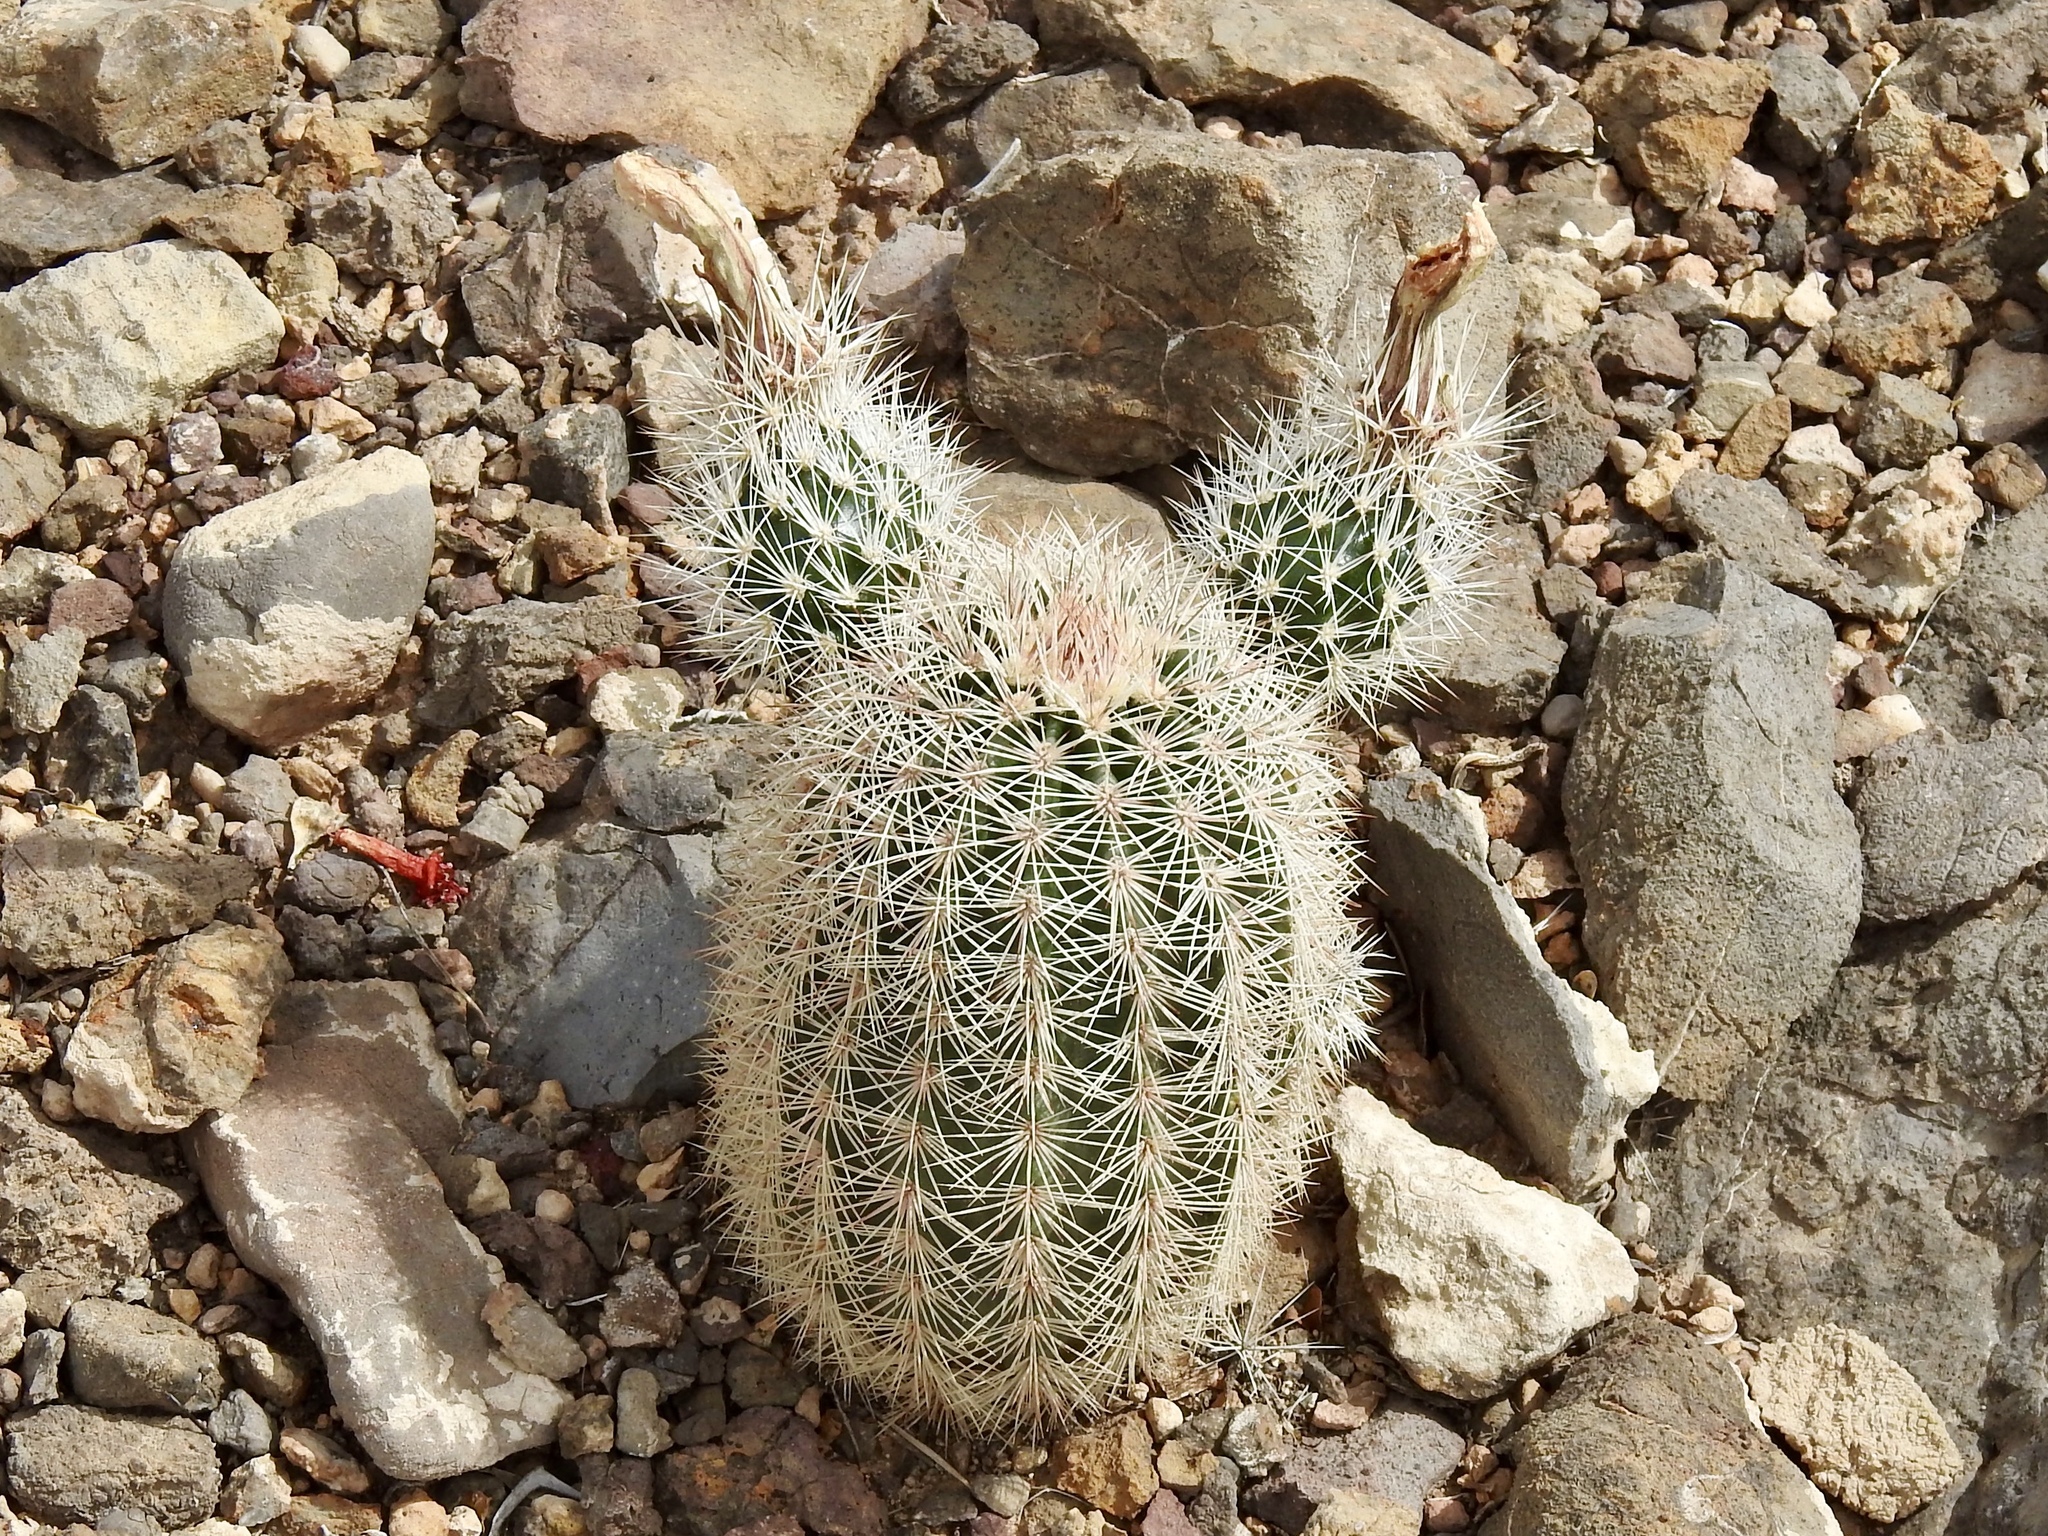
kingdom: Plantae
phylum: Tracheophyta
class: Magnoliopsida
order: Caryophyllales
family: Cactaceae
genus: Echinocereus
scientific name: Echinocereus dasyacanthus
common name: Spiny hedgehog cactus
